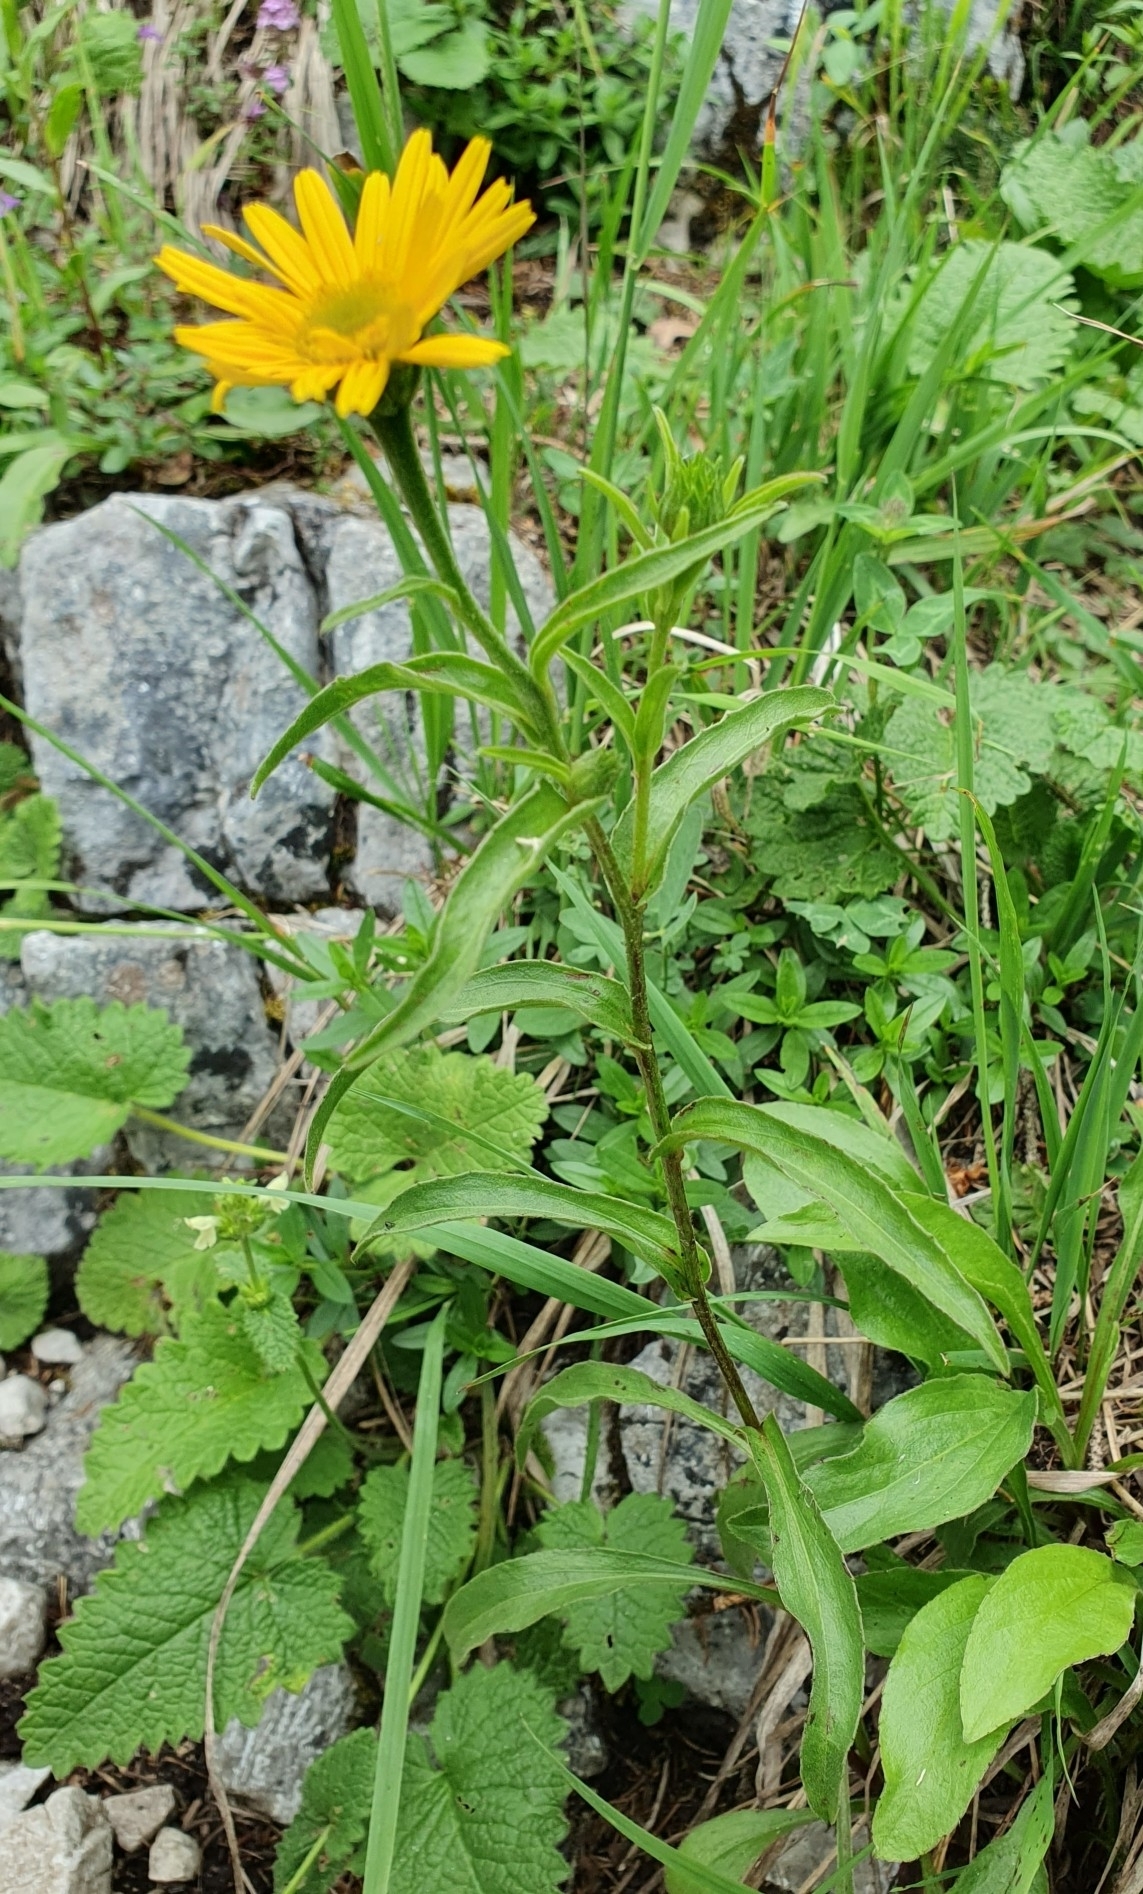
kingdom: Plantae
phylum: Tracheophyta
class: Magnoliopsida
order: Asterales
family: Asteraceae
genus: Buphthalmum
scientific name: Buphthalmum salicifolium
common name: Willow-leaved yellow-oxeye
